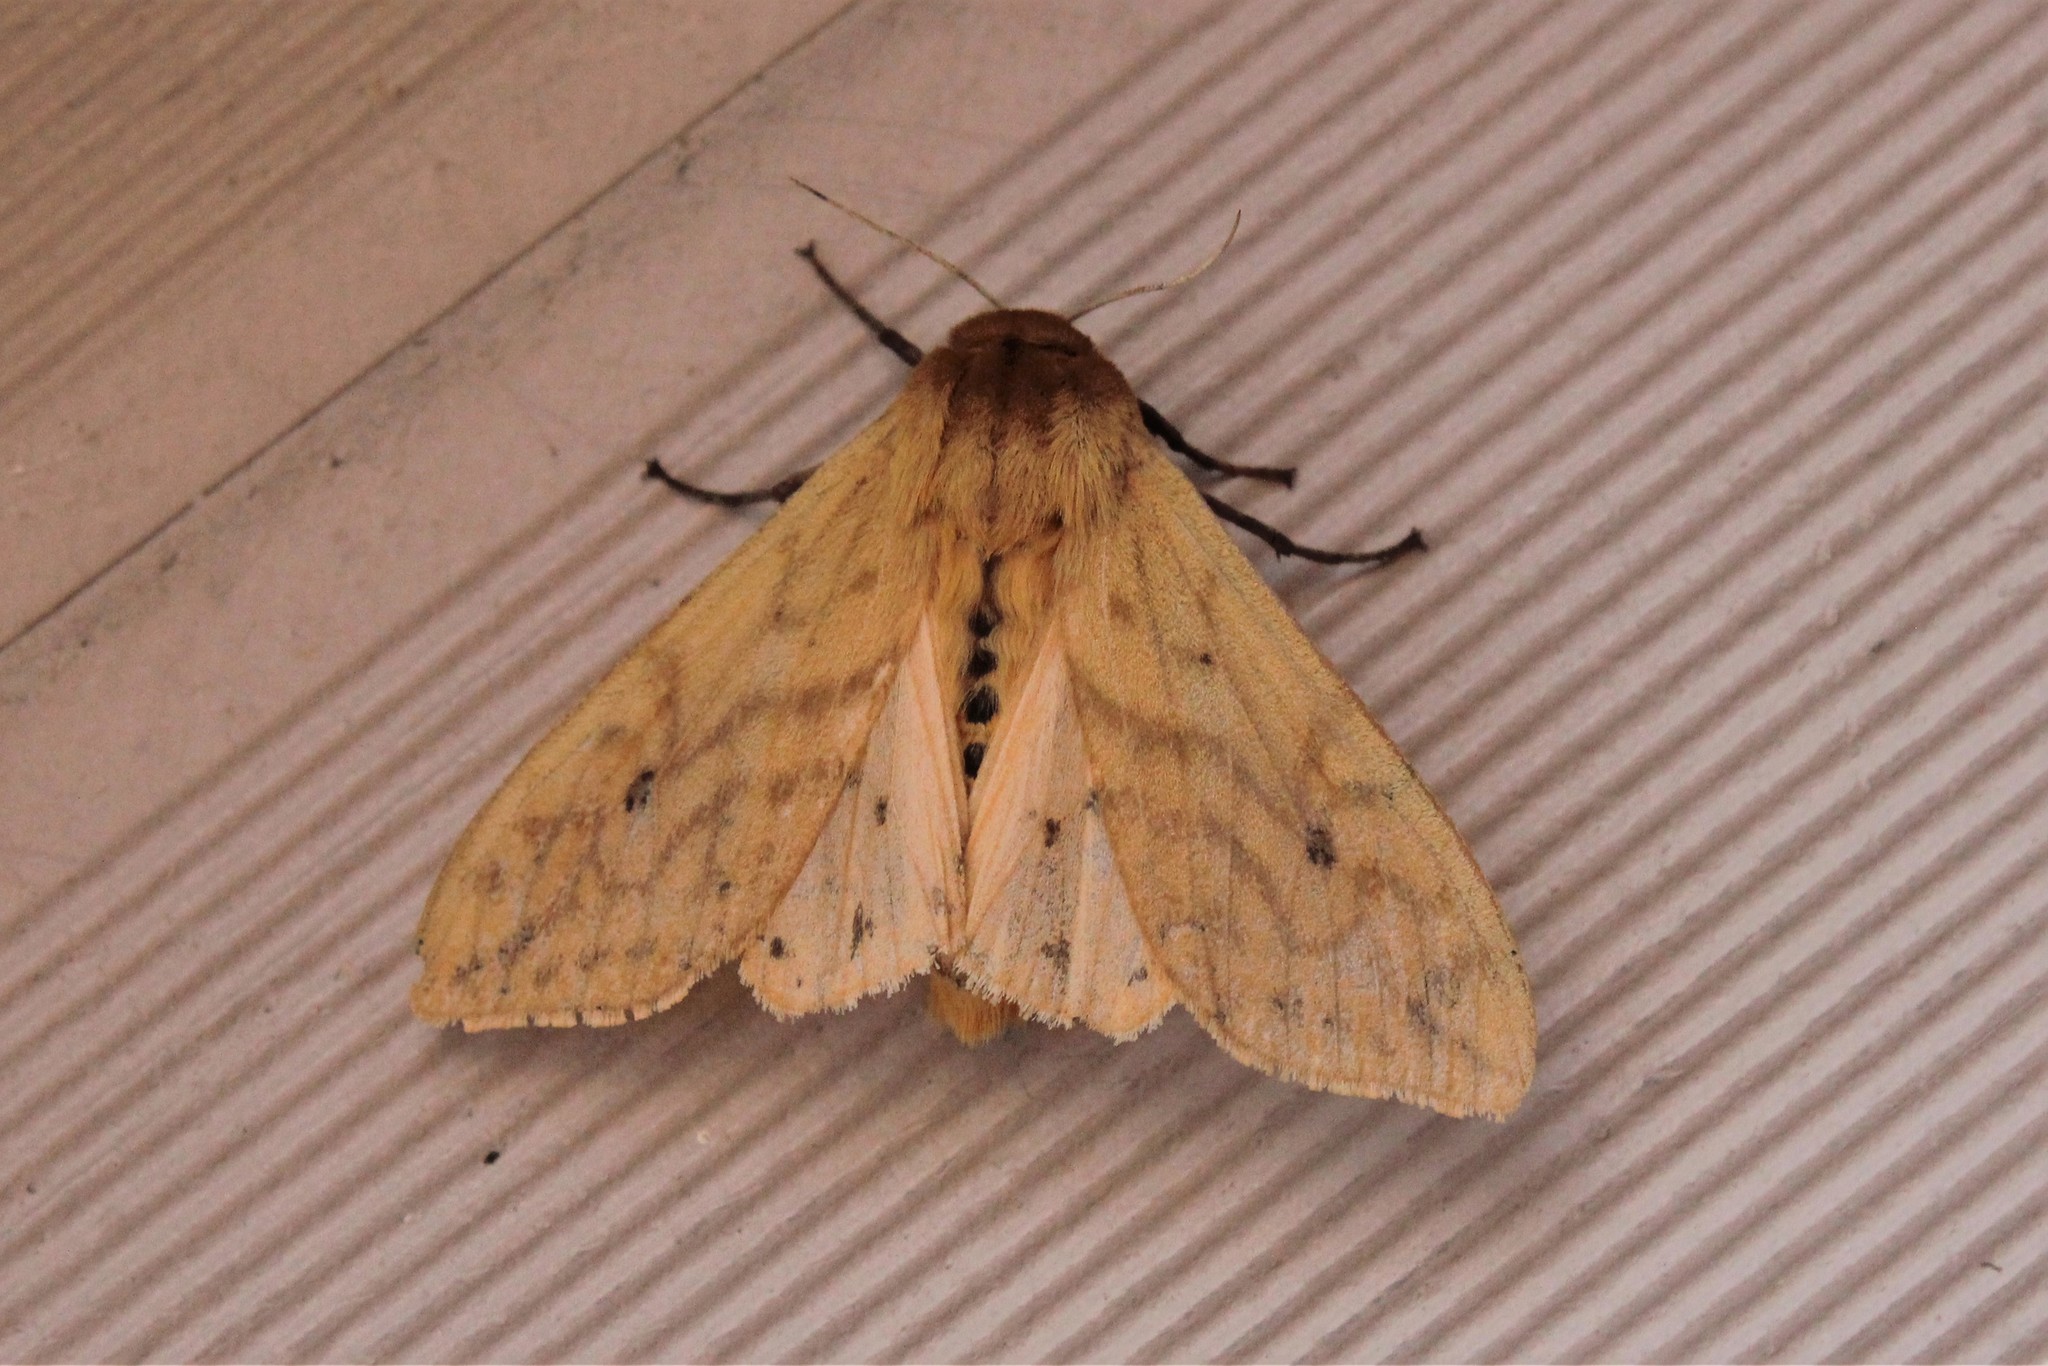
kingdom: Animalia
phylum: Arthropoda
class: Insecta
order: Lepidoptera
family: Erebidae
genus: Pyrrharctia
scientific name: Pyrrharctia isabella
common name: Isabella tiger moth
